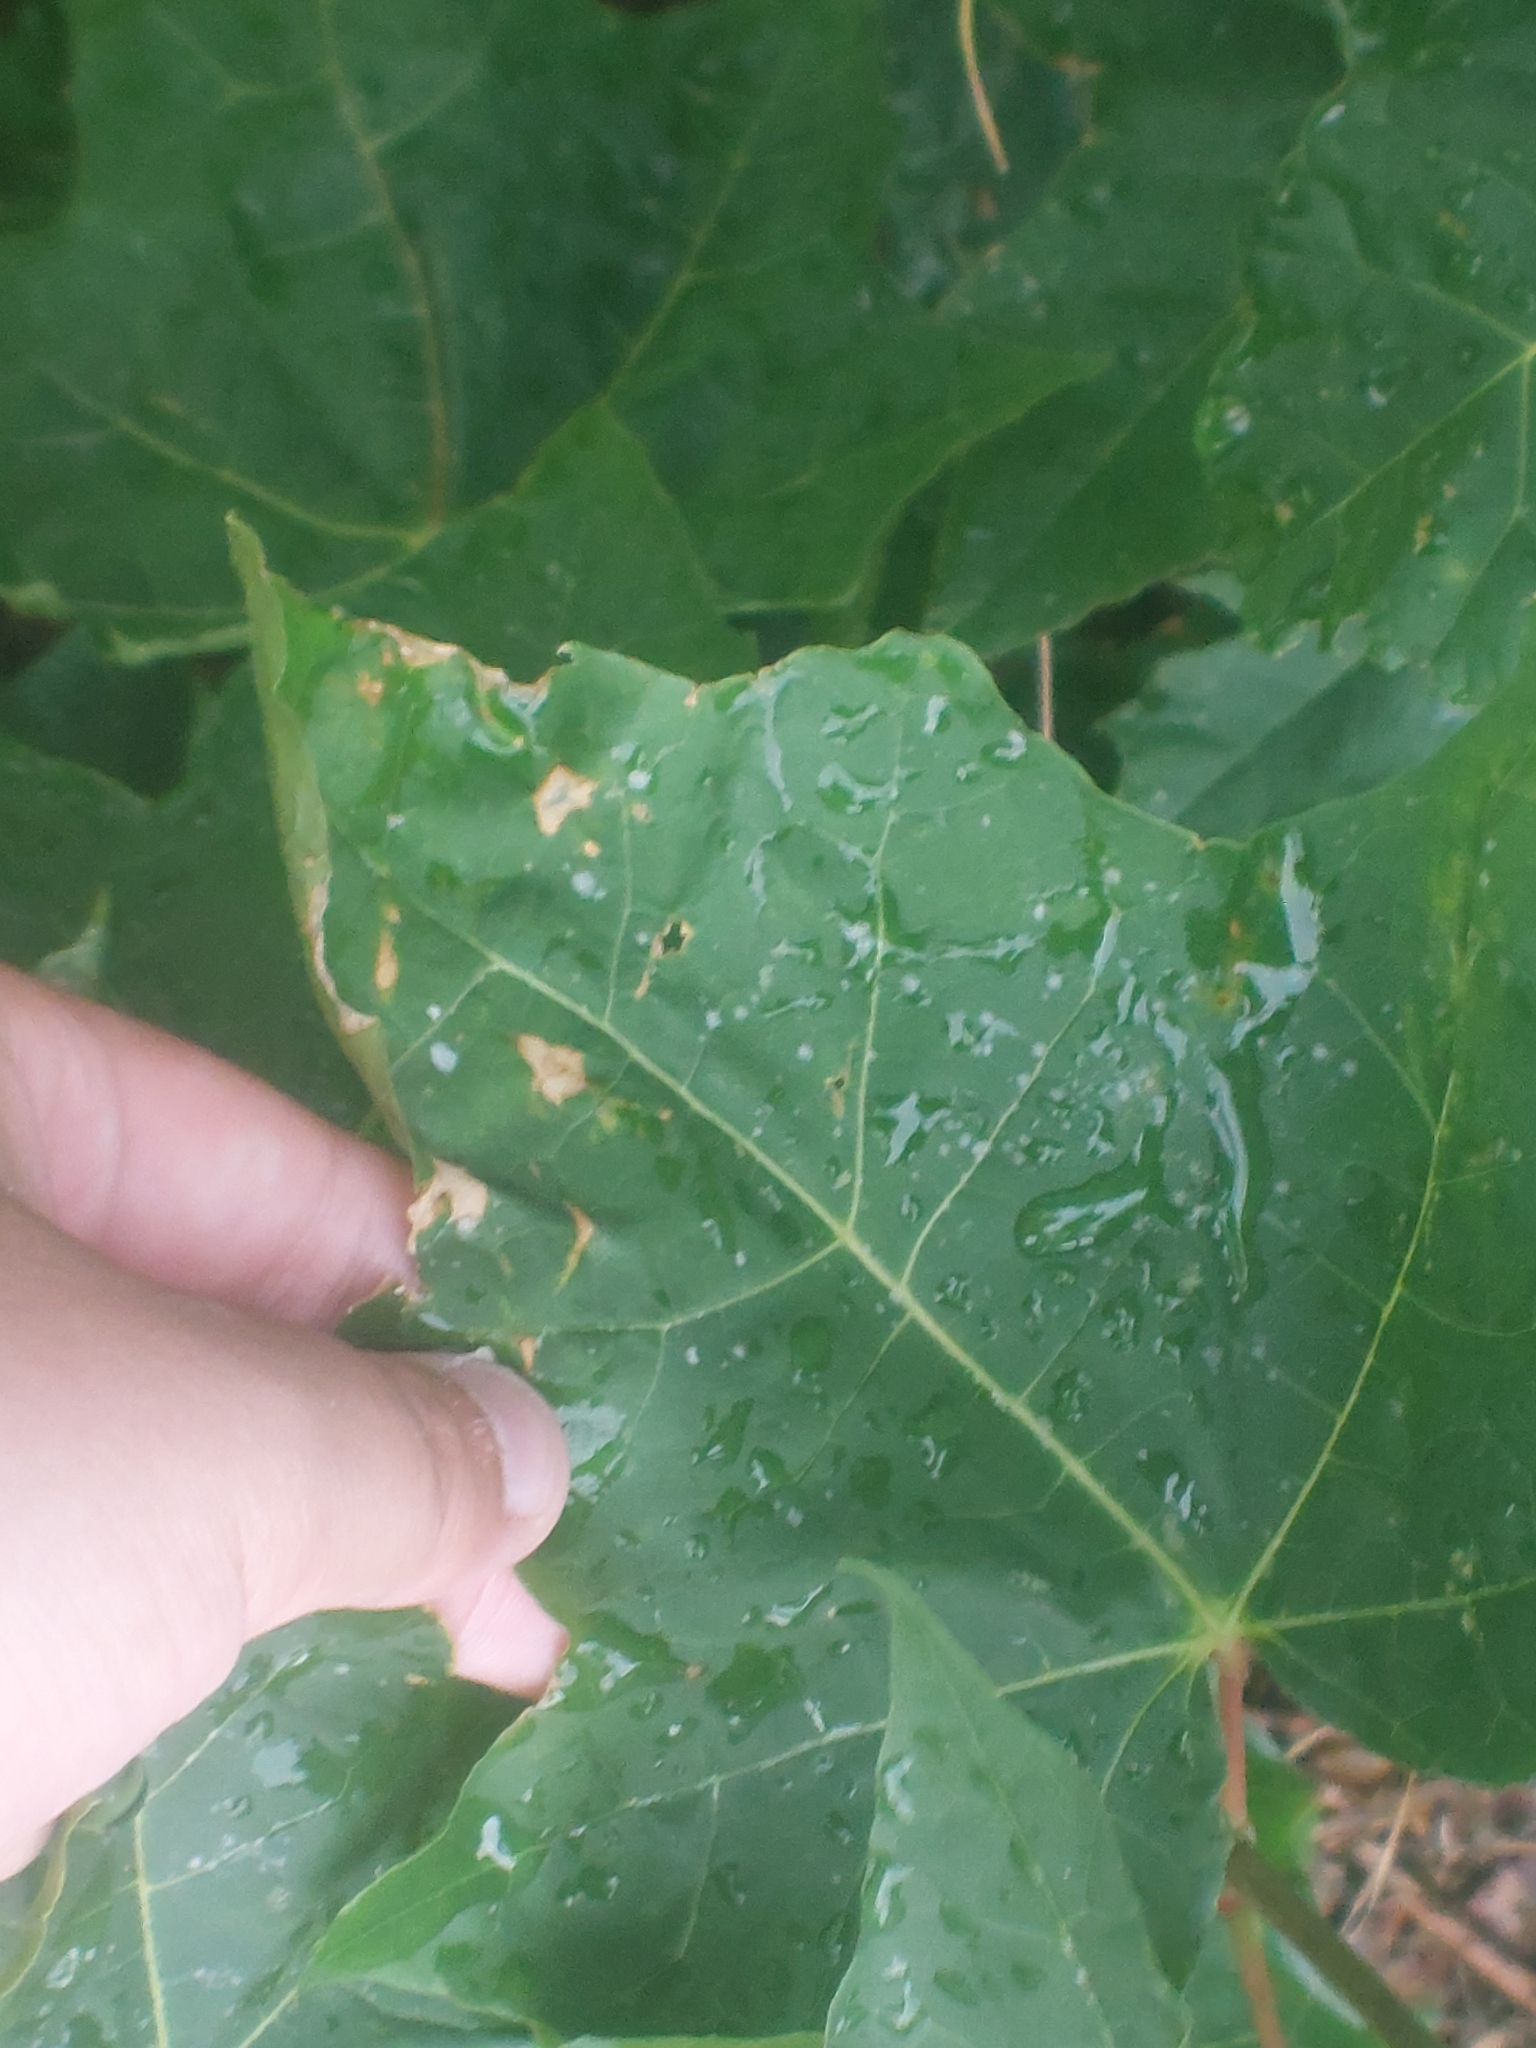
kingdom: Plantae
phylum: Tracheophyta
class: Magnoliopsida
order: Sapindales
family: Sapindaceae
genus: Acer
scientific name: Acer platanoides
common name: Norway maple
